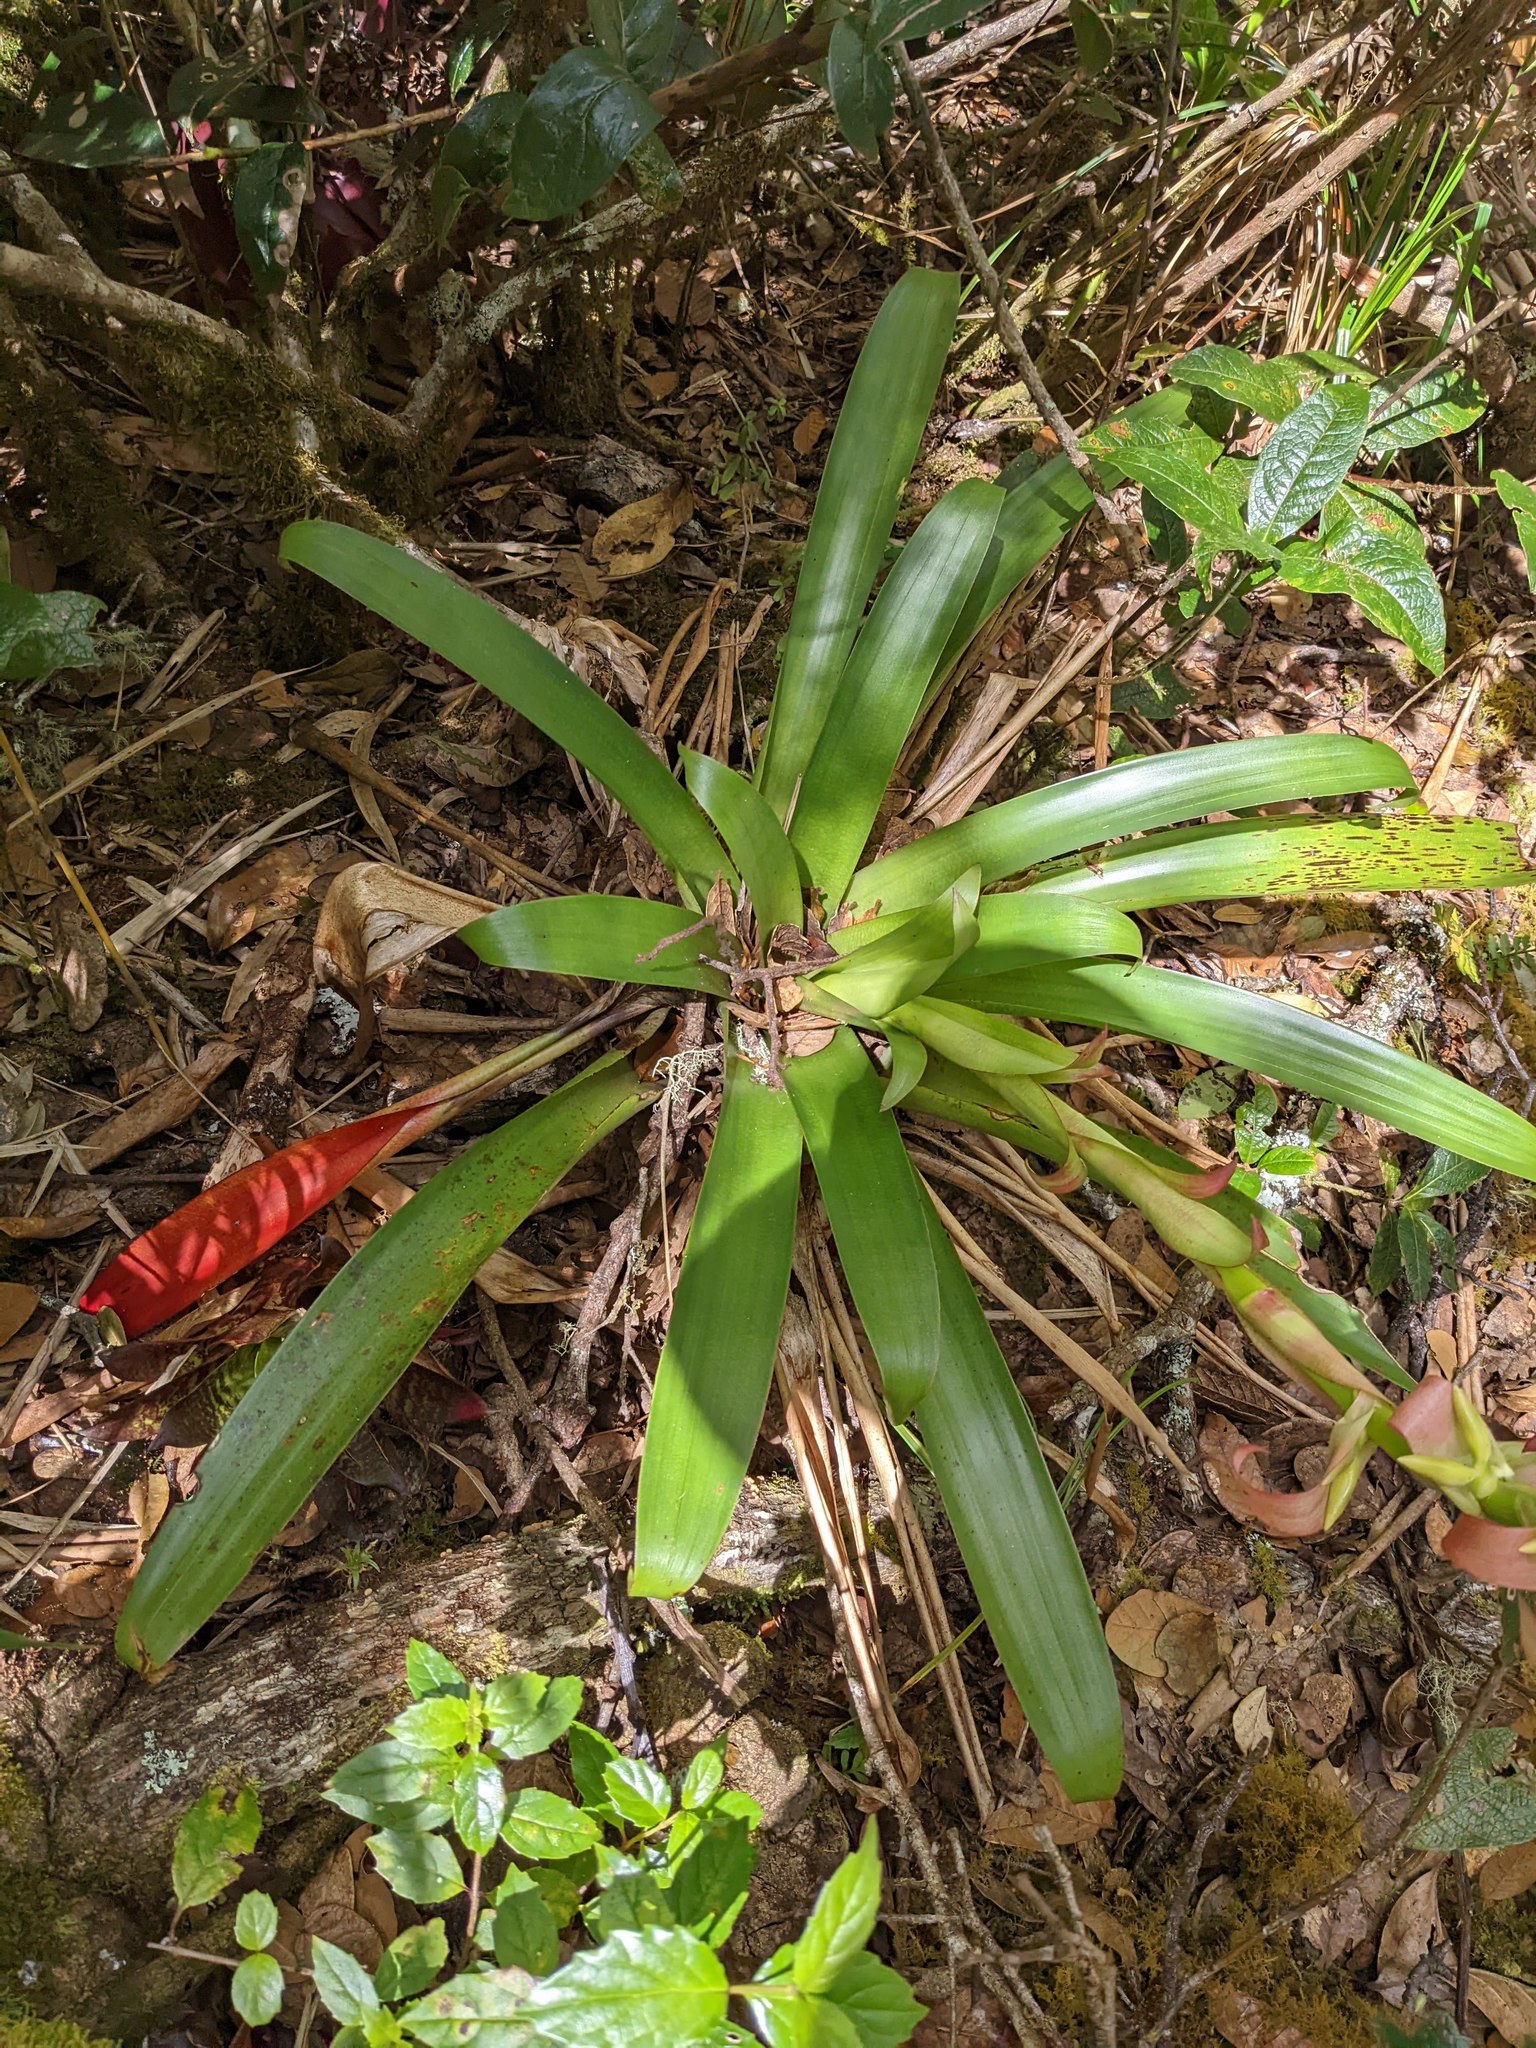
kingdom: Plantae
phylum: Tracheophyta
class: Liliopsida
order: Poales
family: Bromeliaceae
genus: Werauhia
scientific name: Werauhia ororiensis
